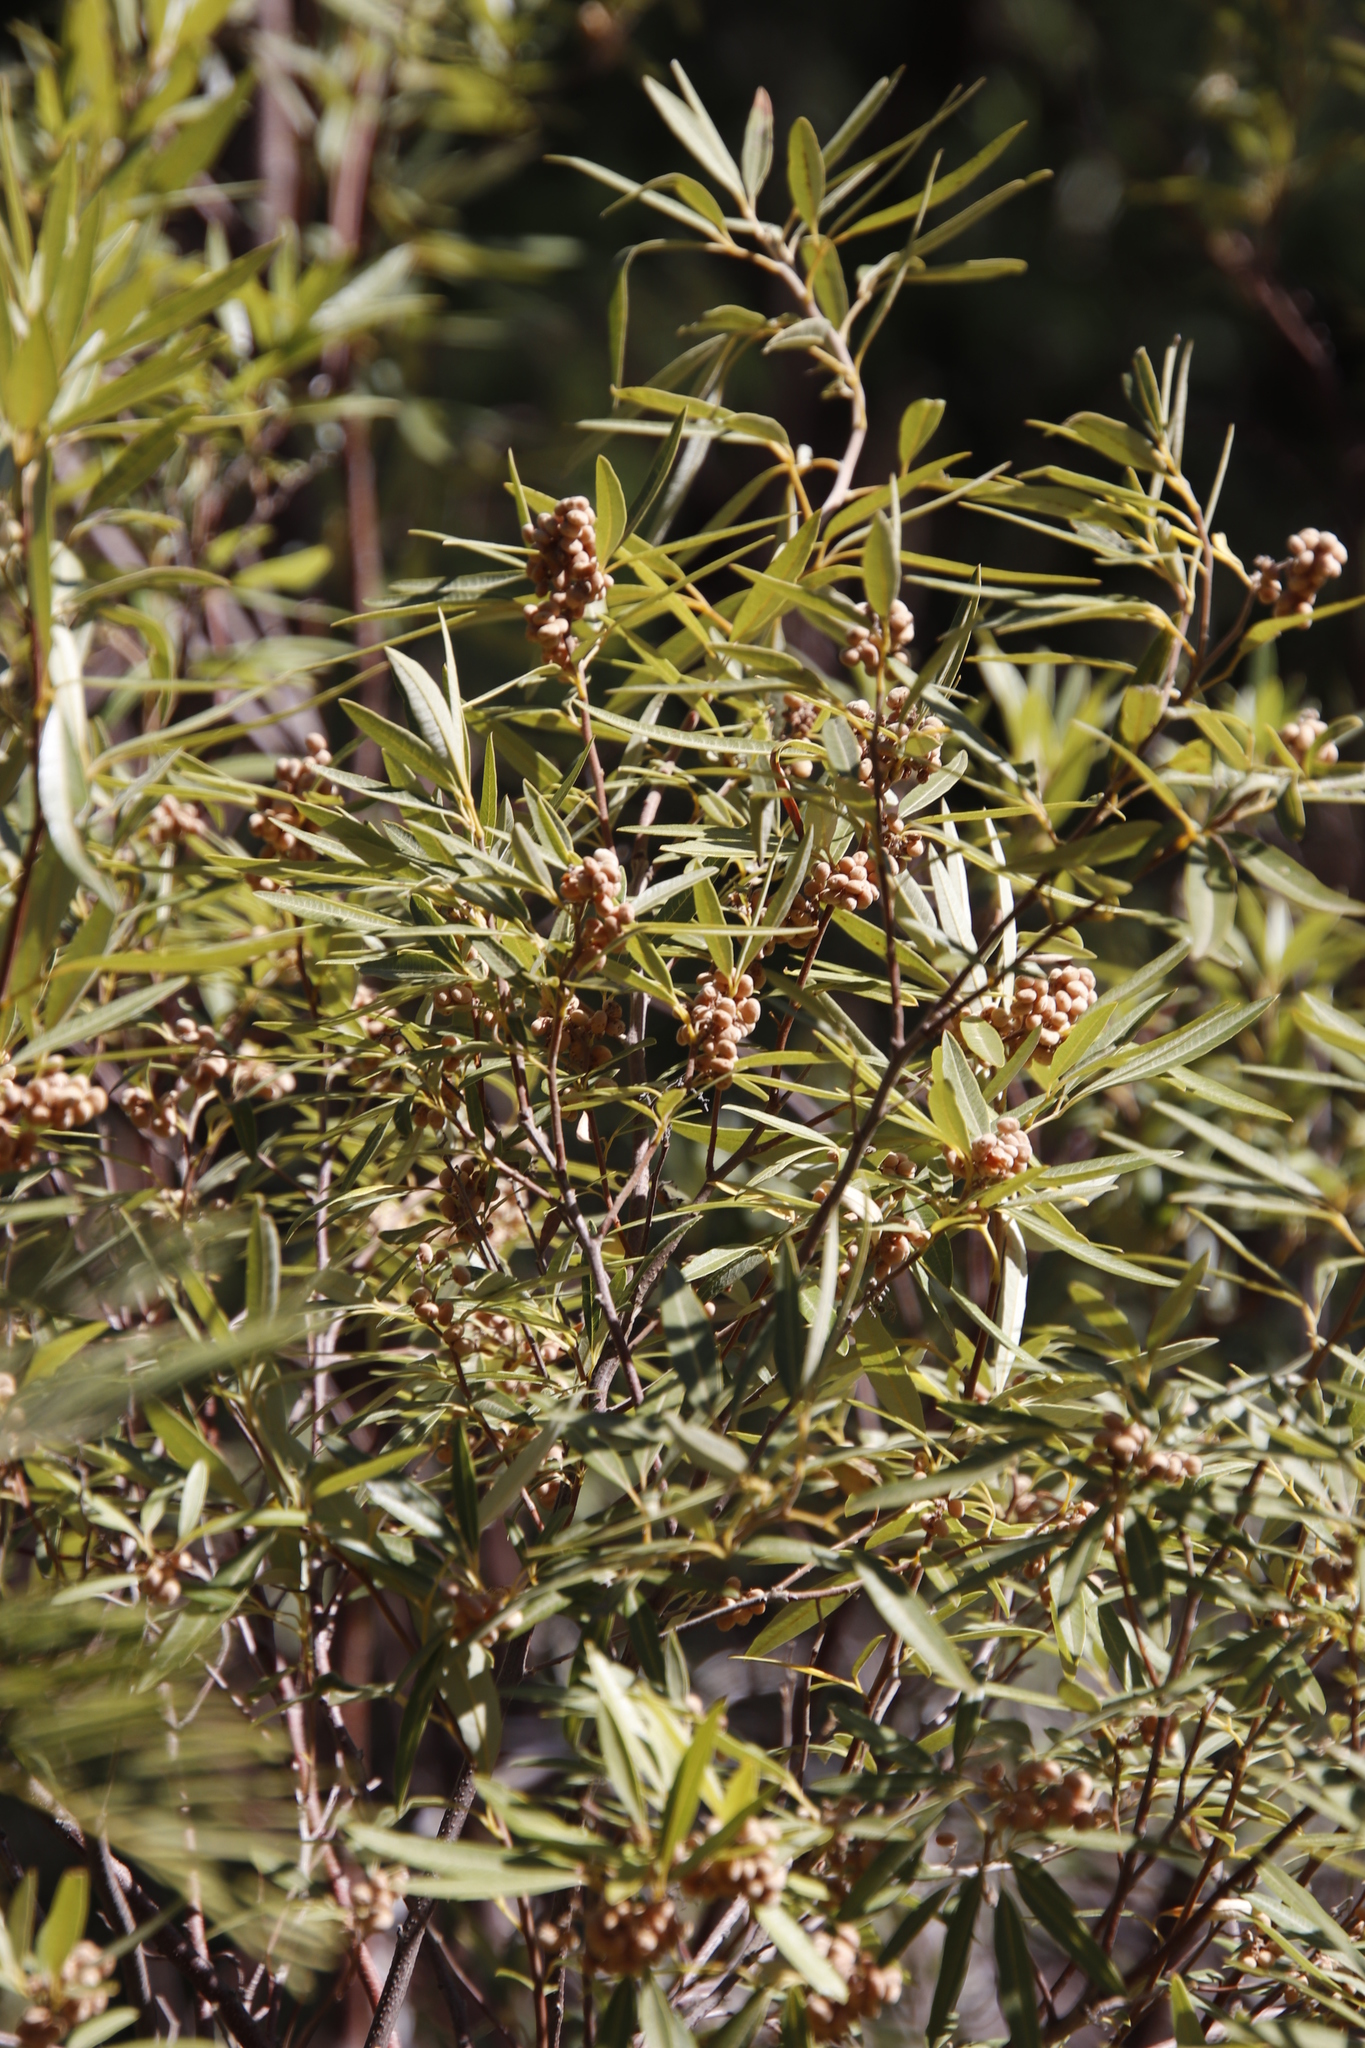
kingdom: Plantae
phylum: Tracheophyta
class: Magnoliopsida
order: Sapindales
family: Anacardiaceae
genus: Searsia
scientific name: Searsia angustifolia
